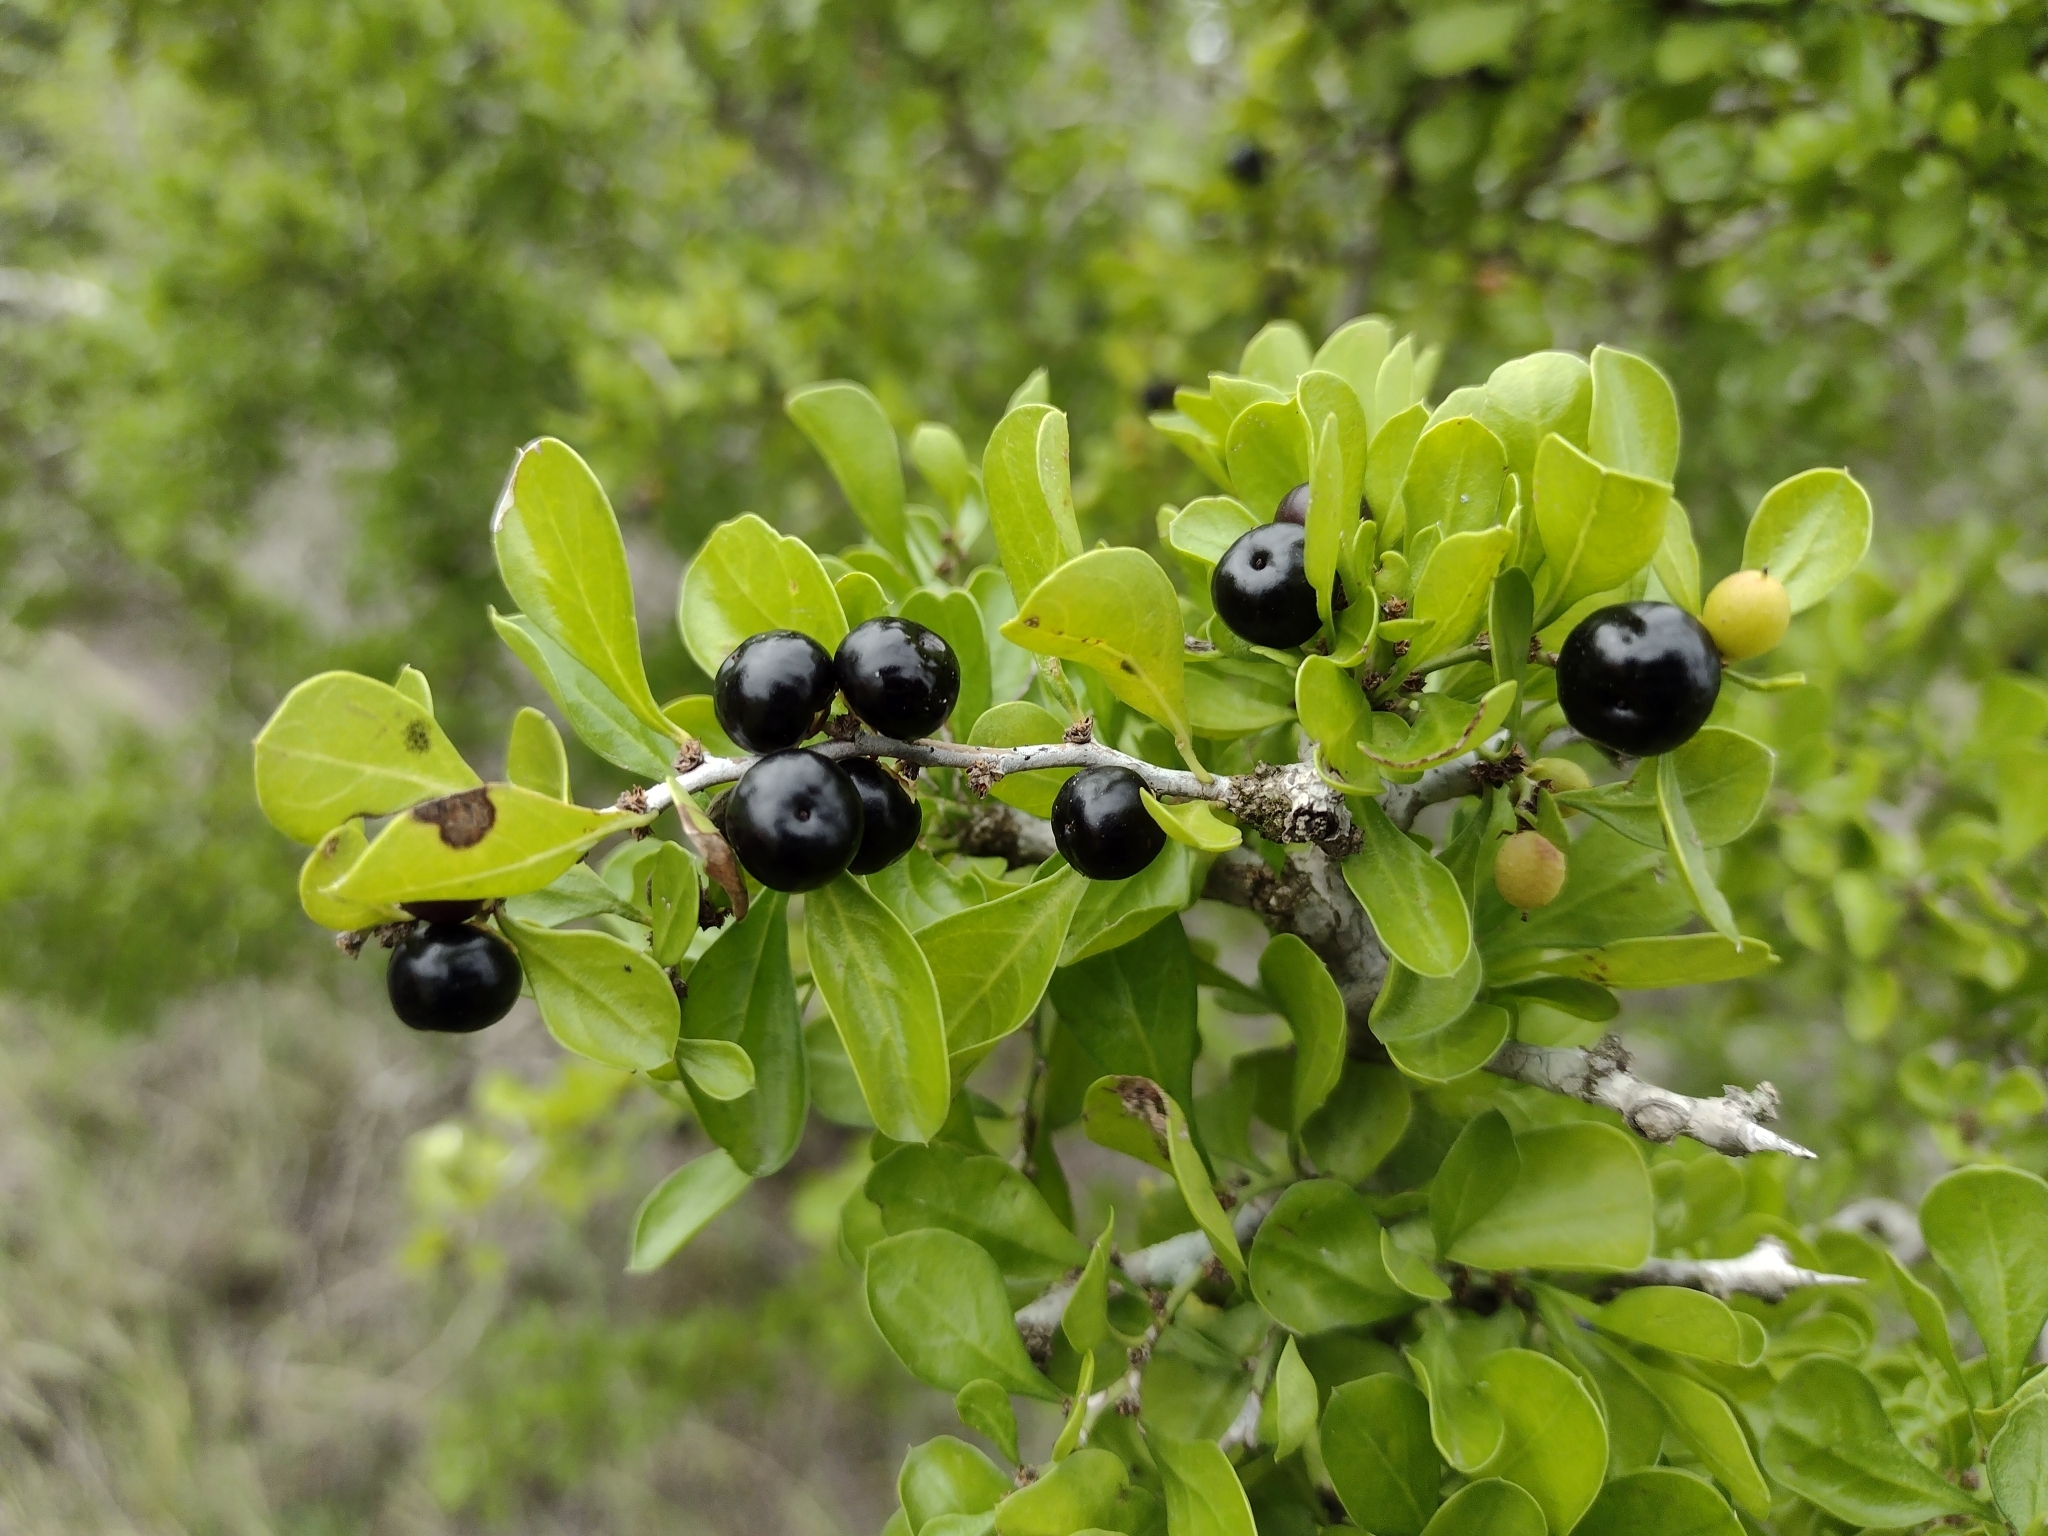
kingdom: Plantae
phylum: Tracheophyta
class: Magnoliopsida
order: Rosales
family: Rhamnaceae
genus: Condalia
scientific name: Condalia hookeri
